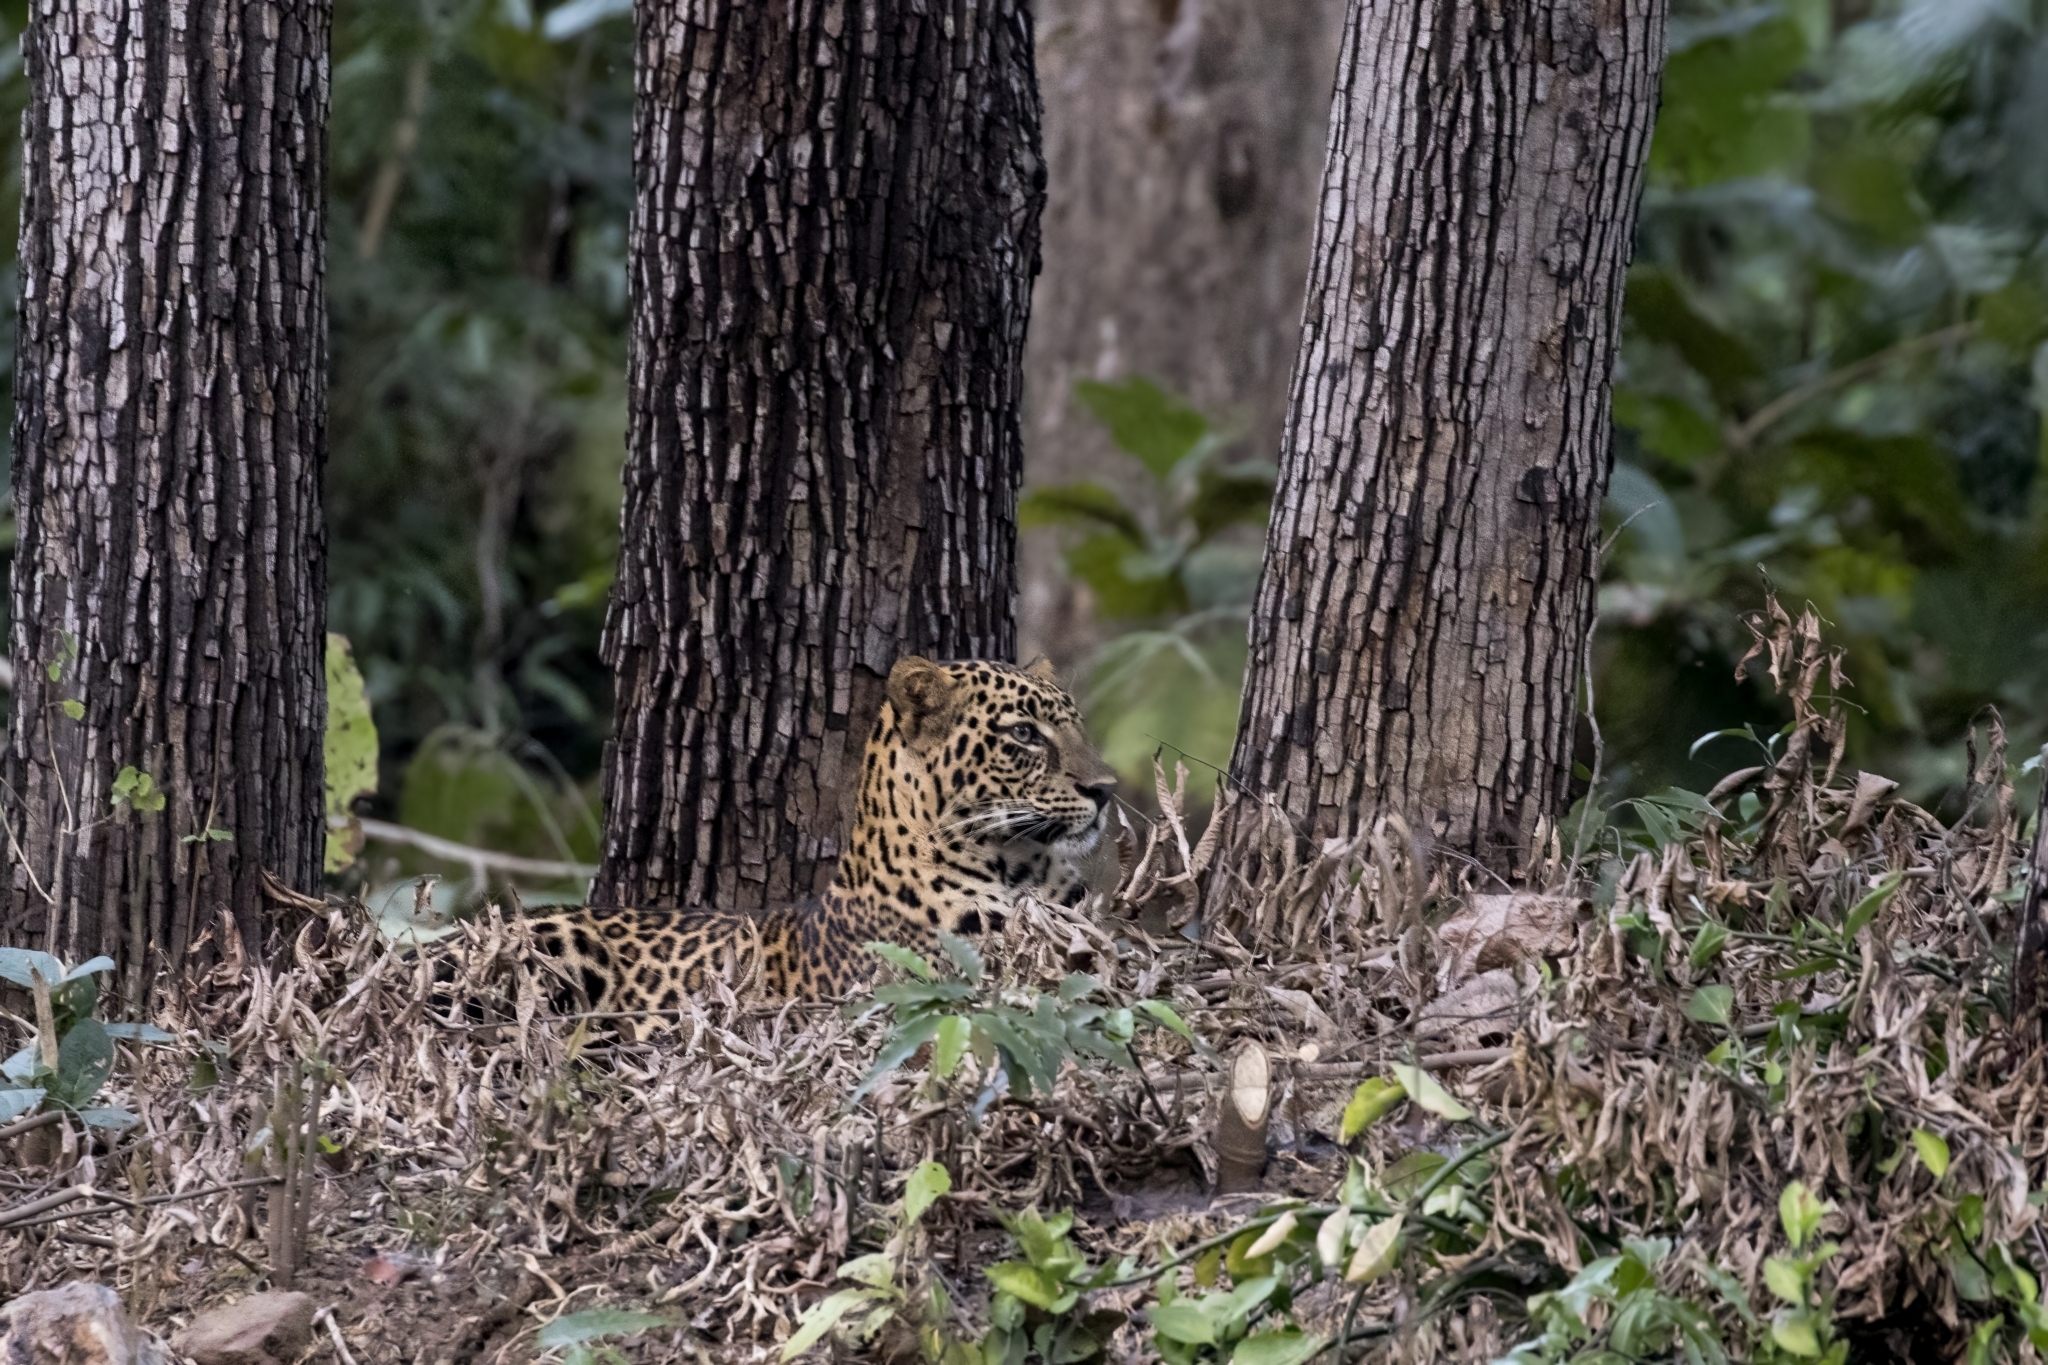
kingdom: Animalia
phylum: Chordata
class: Mammalia
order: Carnivora
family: Felidae
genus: Panthera
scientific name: Panthera pardus
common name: Leopard
